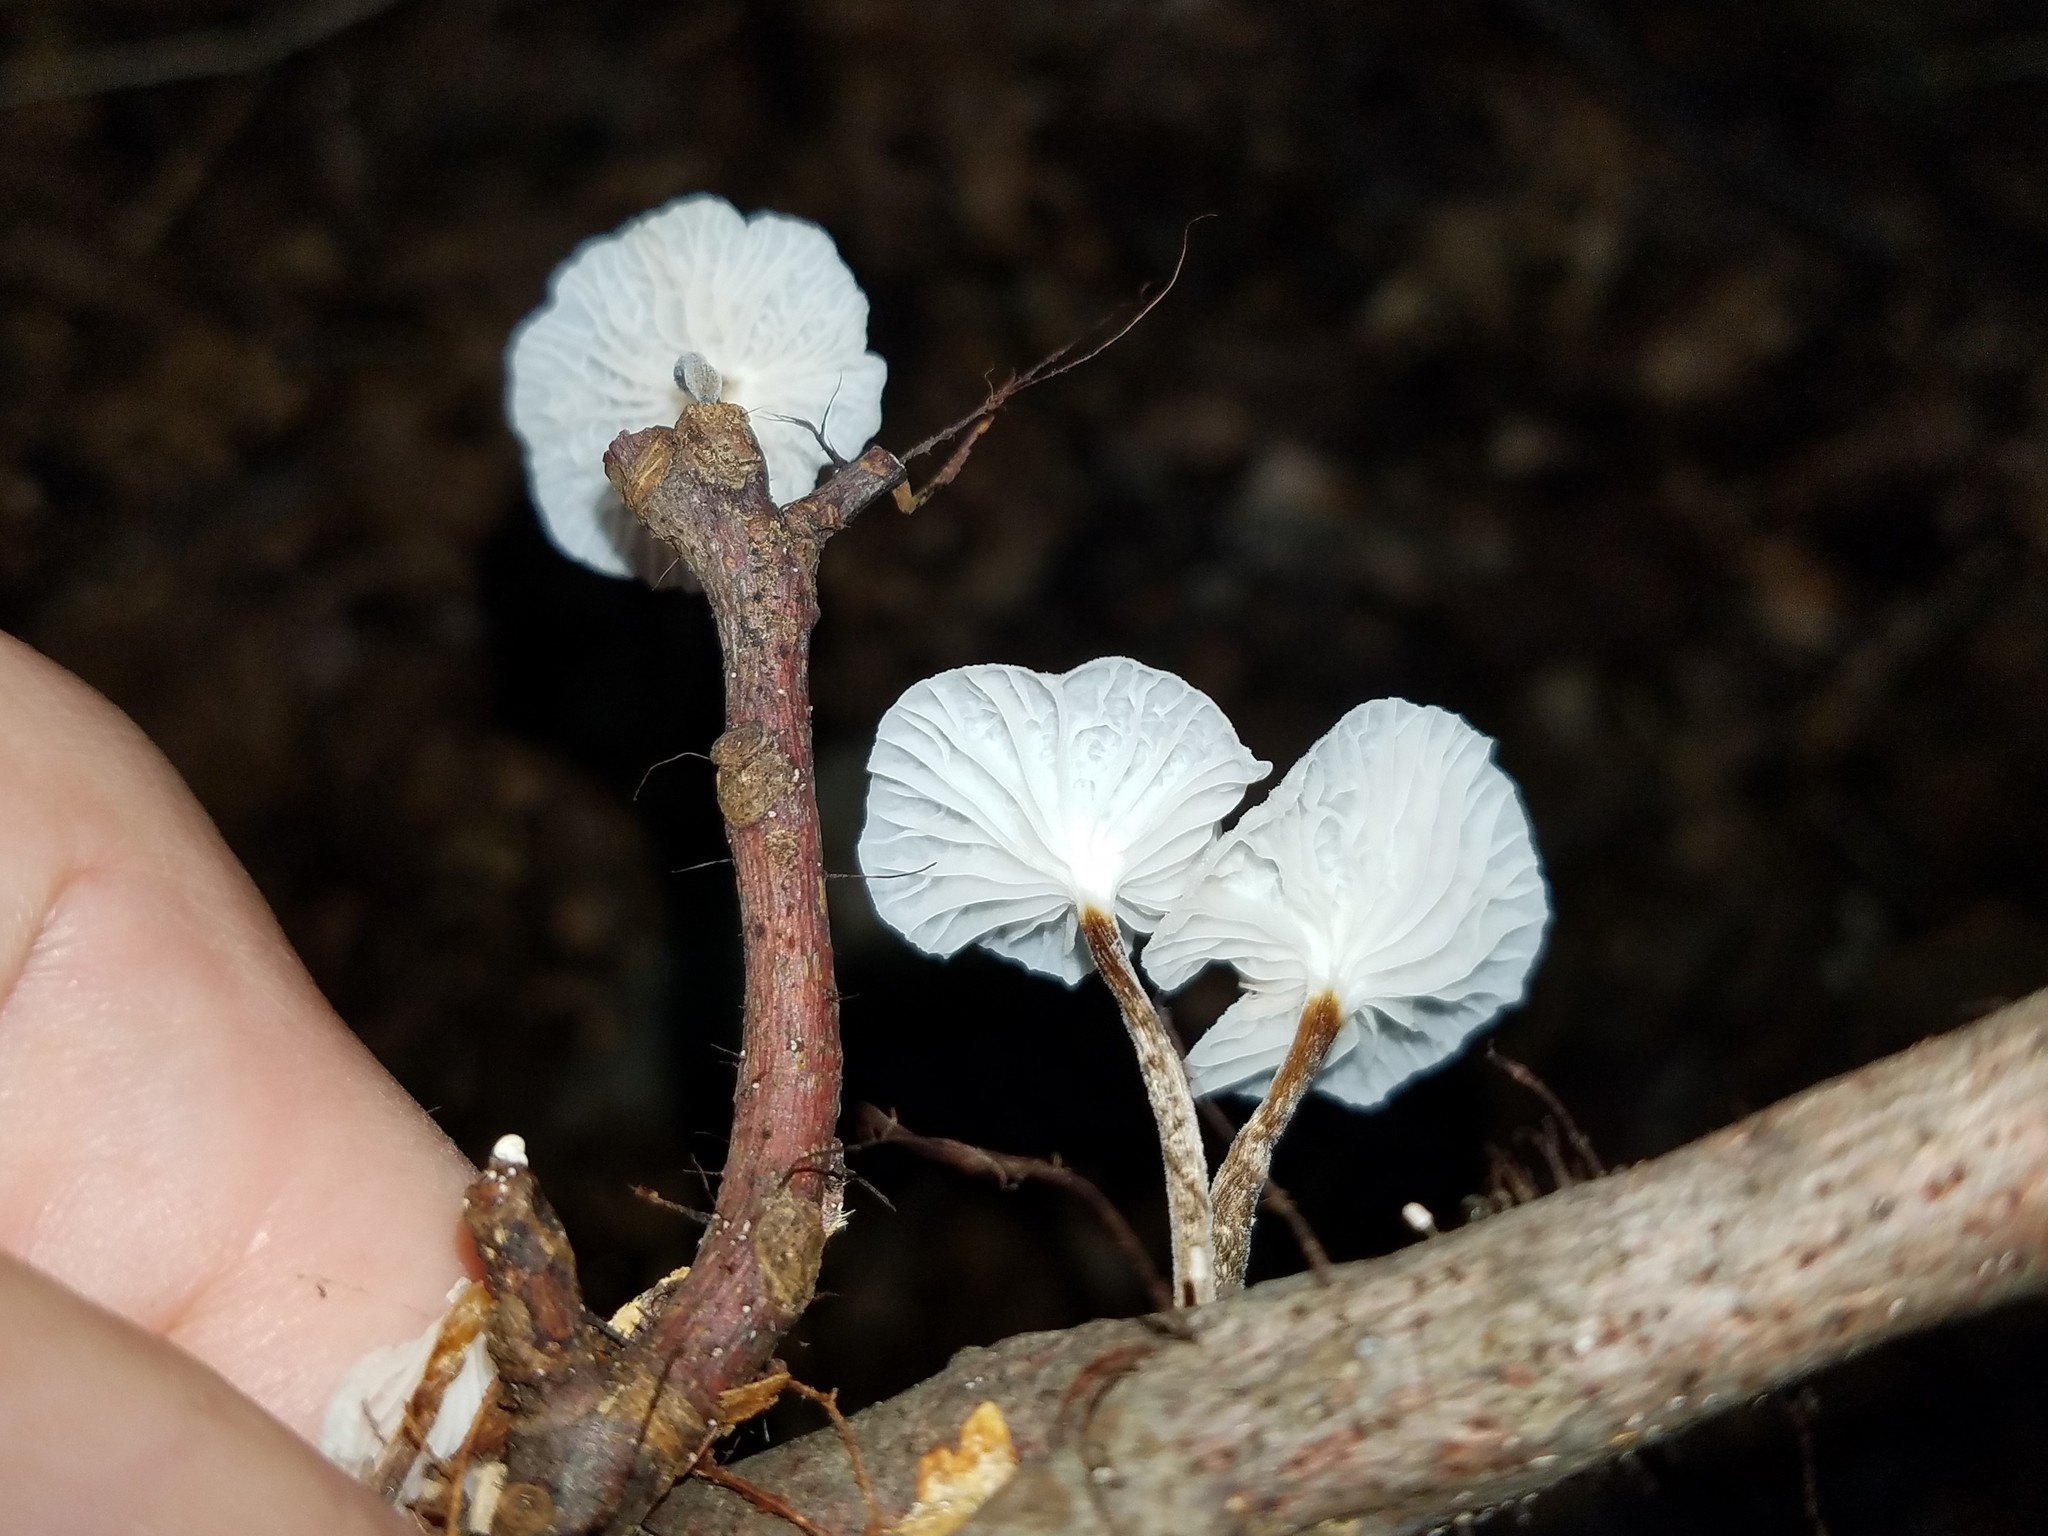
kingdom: Fungi
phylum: Basidiomycota
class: Agaricomycetes
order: Agaricales
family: Marasmiaceae
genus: Tetrapyrgos
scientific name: Tetrapyrgos nigripes
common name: Black-stalked marasmius
